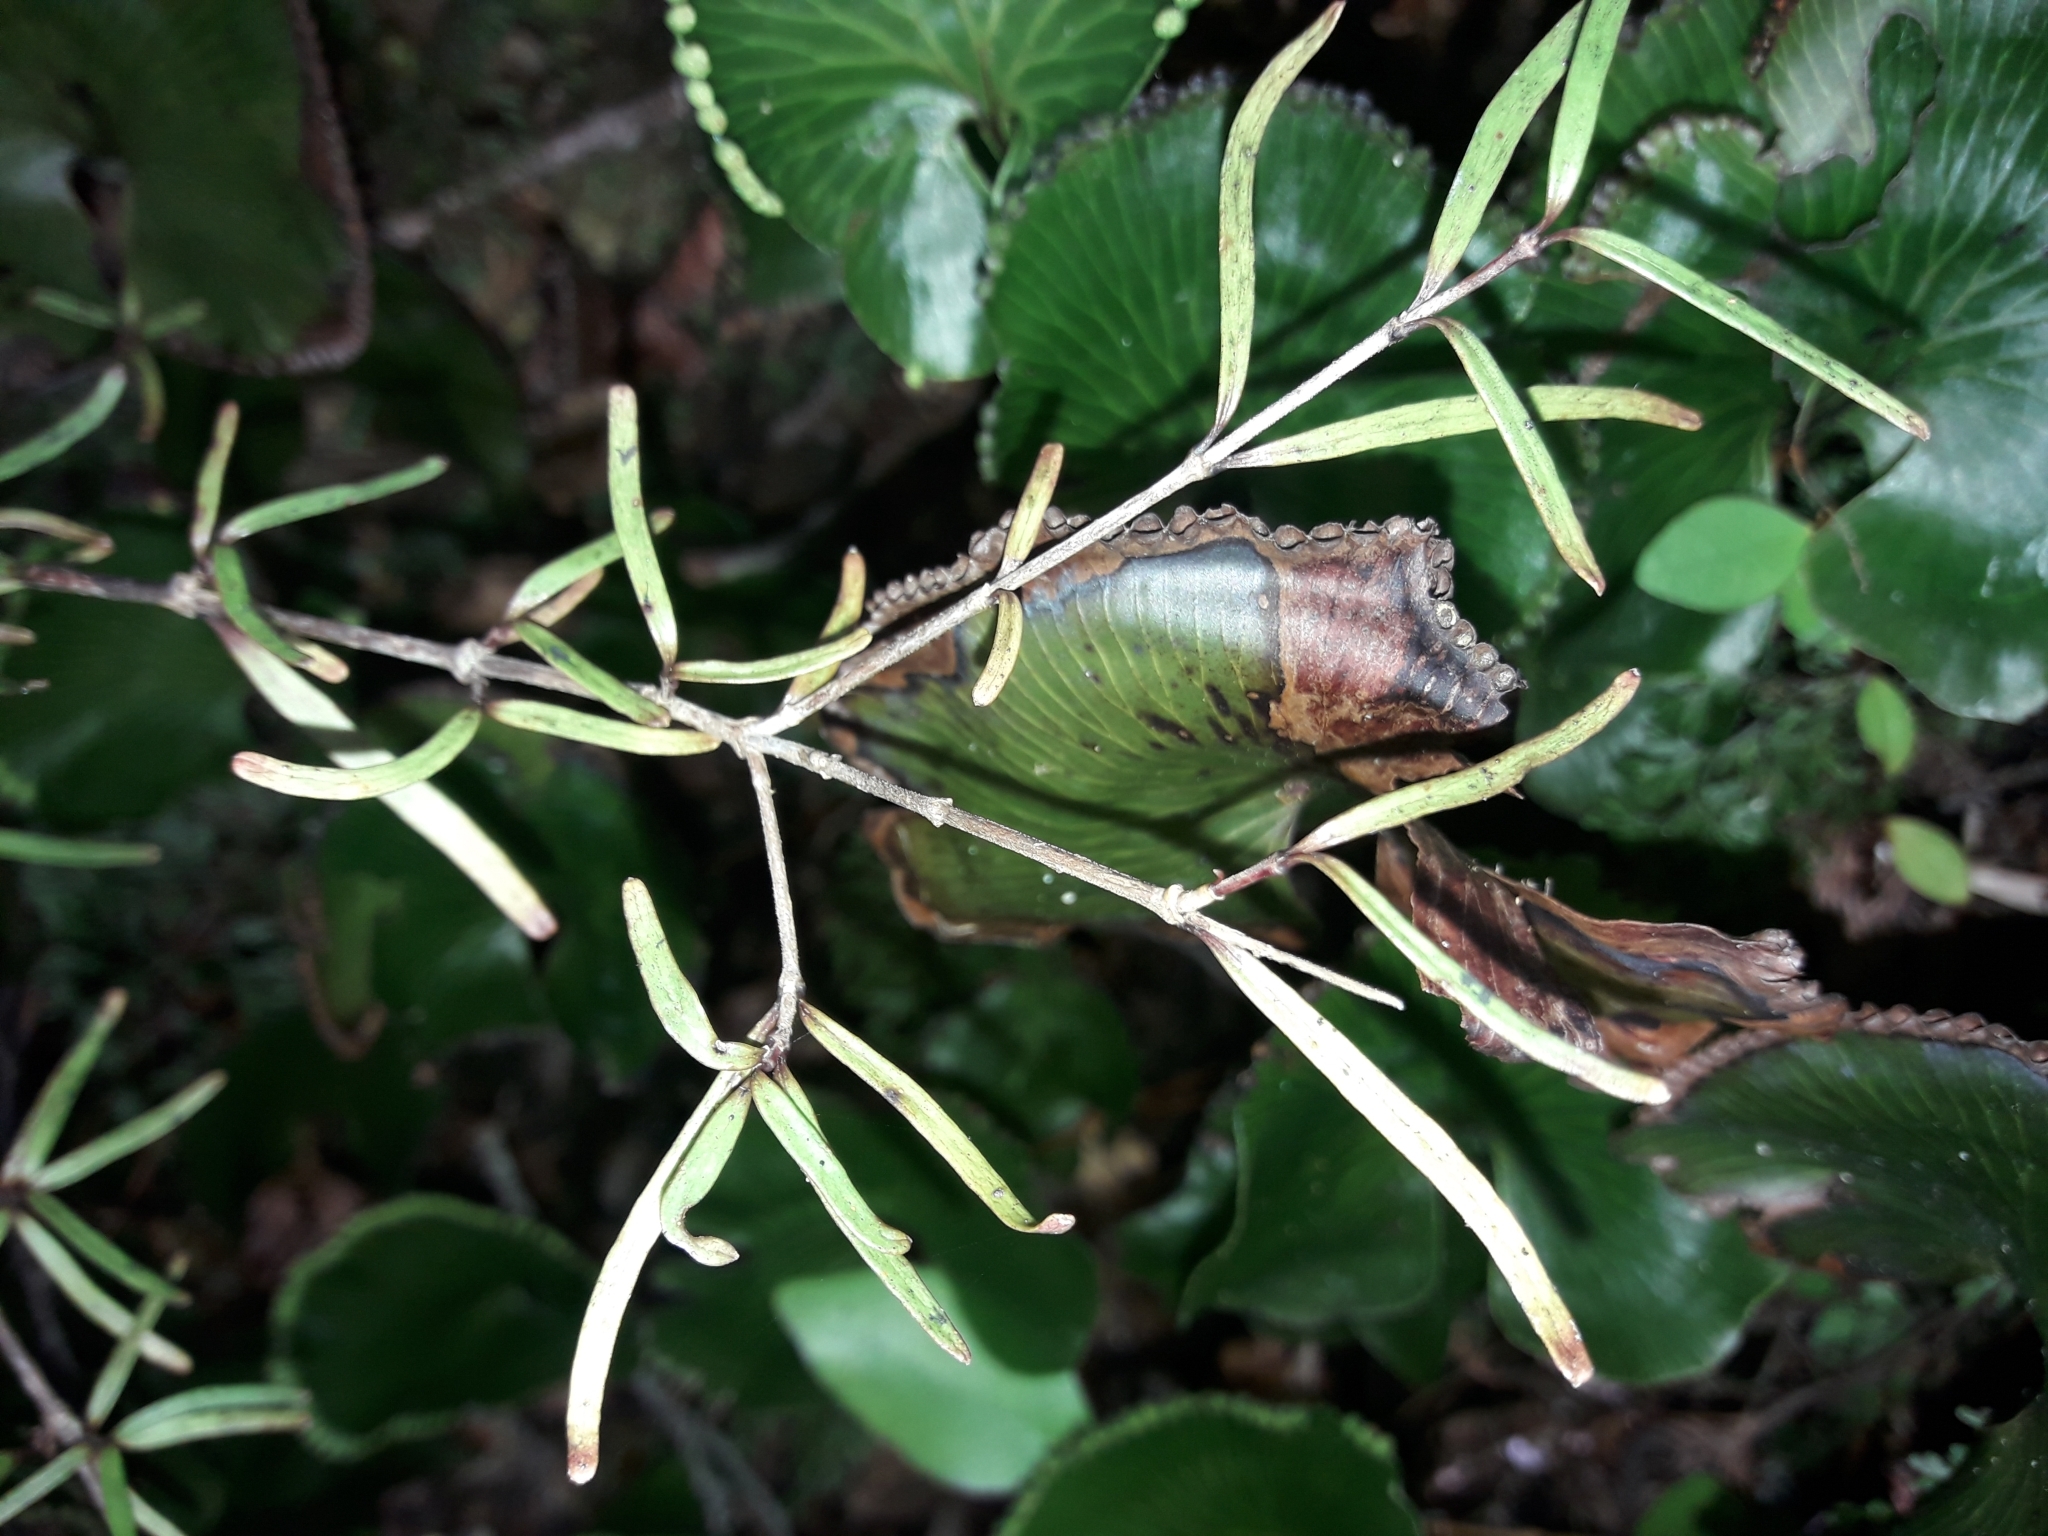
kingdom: Plantae
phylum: Tracheophyta
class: Magnoliopsida
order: Gentianales
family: Rubiaceae
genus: Coprosma
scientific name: Coprosma linariifolia
